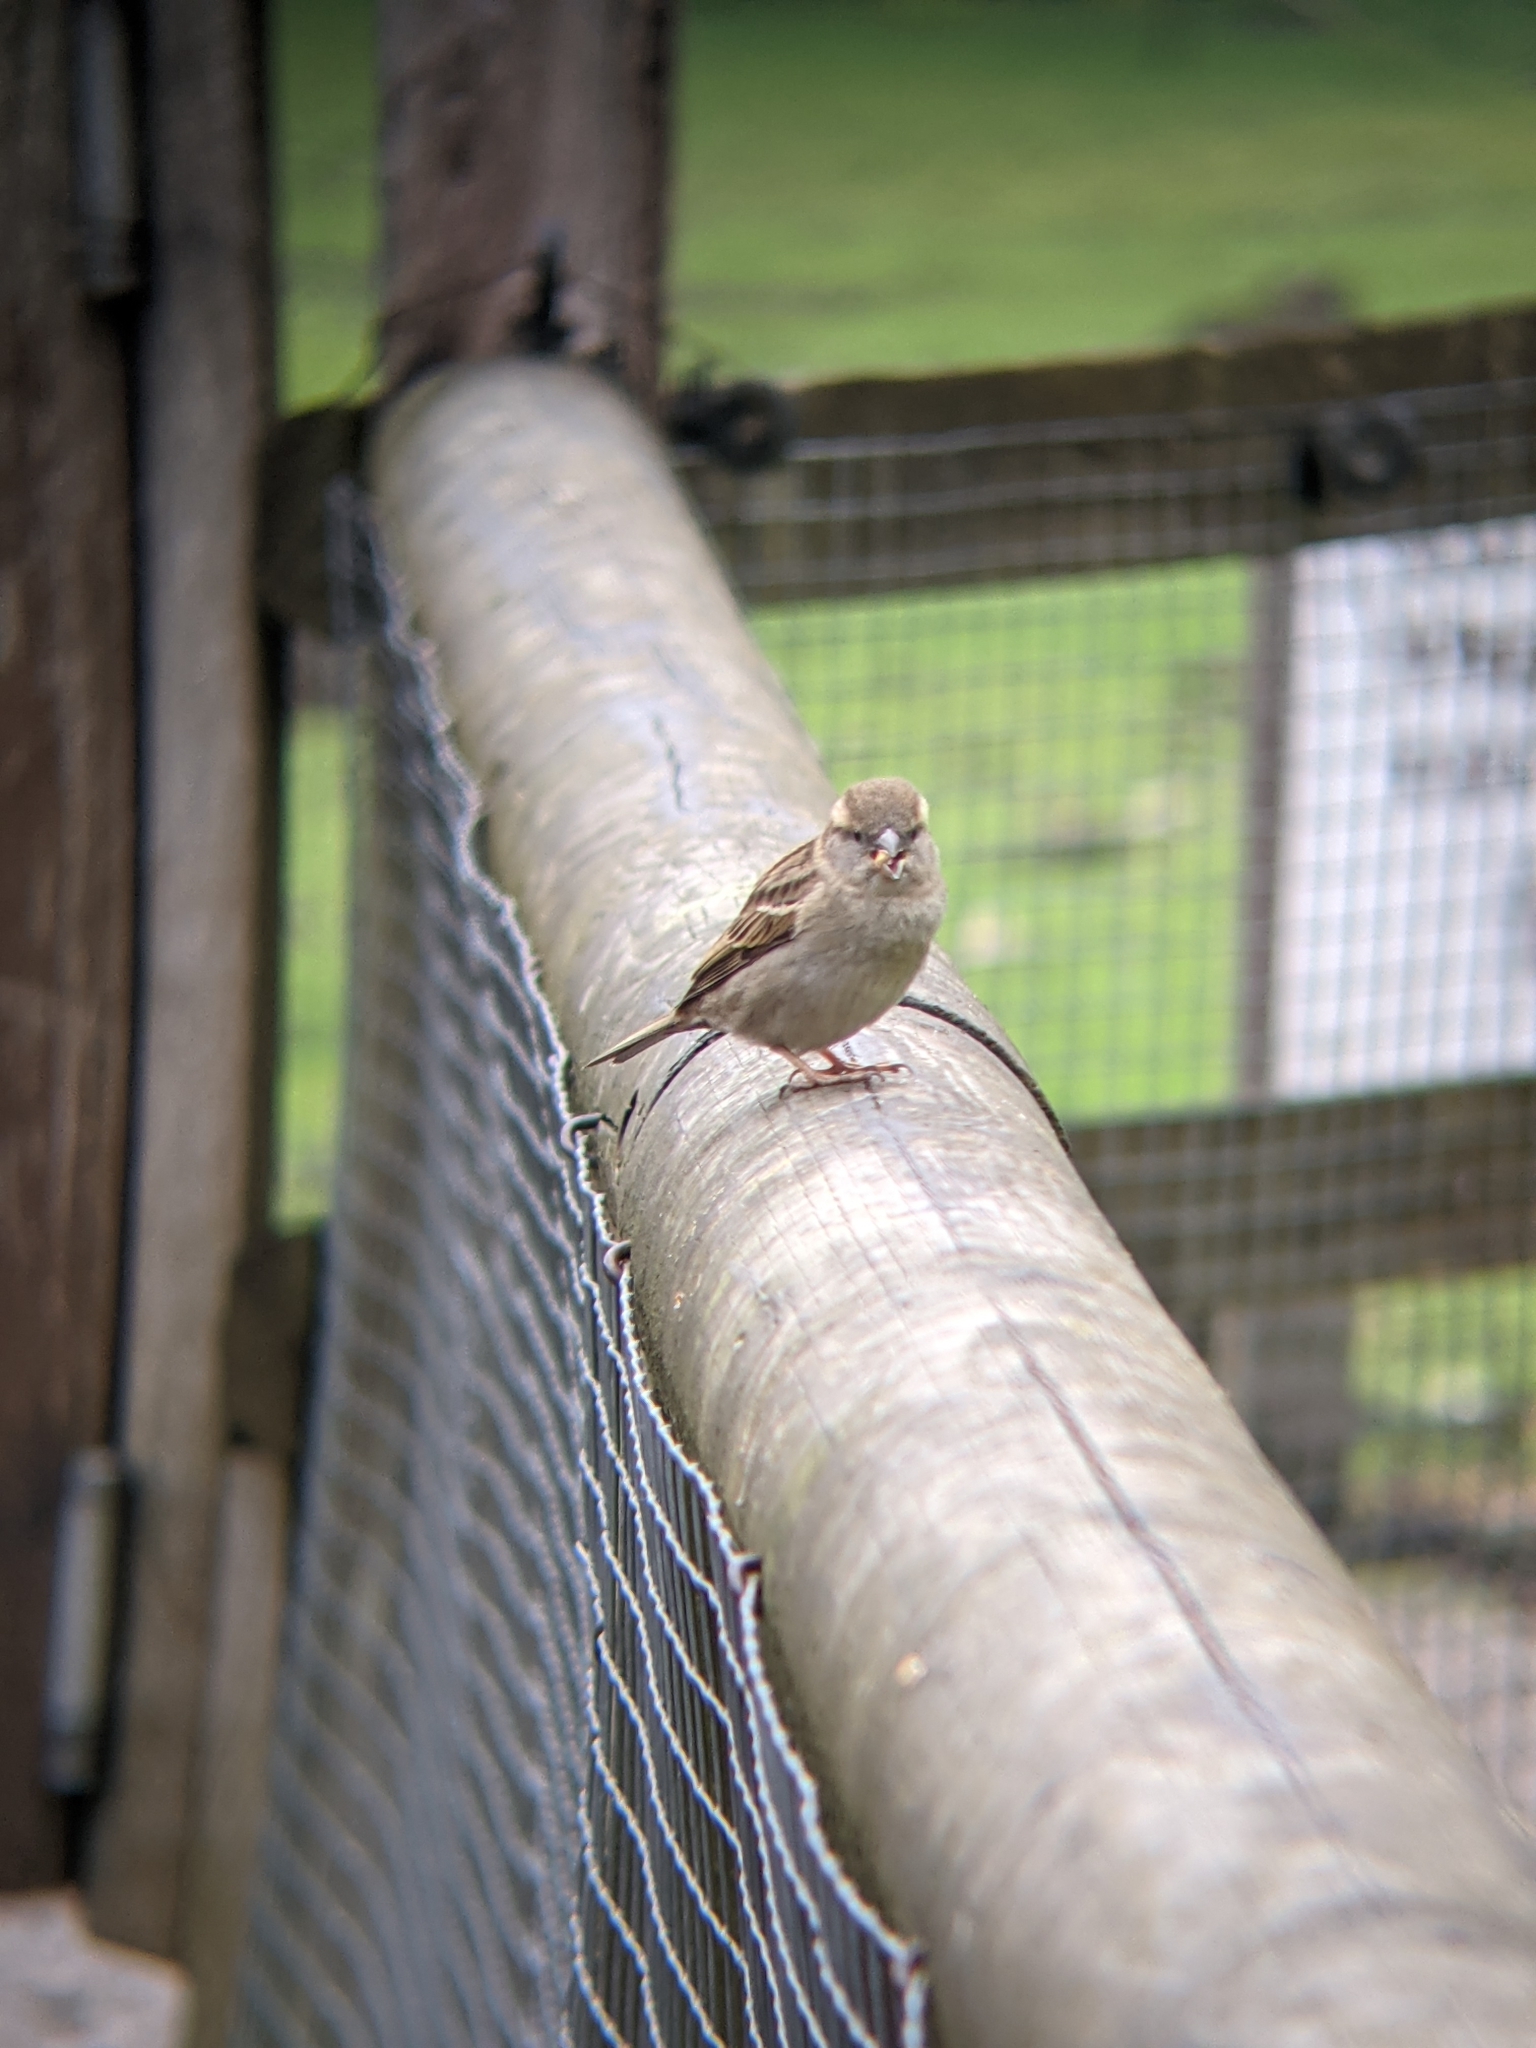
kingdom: Animalia
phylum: Chordata
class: Aves
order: Passeriformes
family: Passeridae
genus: Passer
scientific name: Passer domesticus
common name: House sparrow
